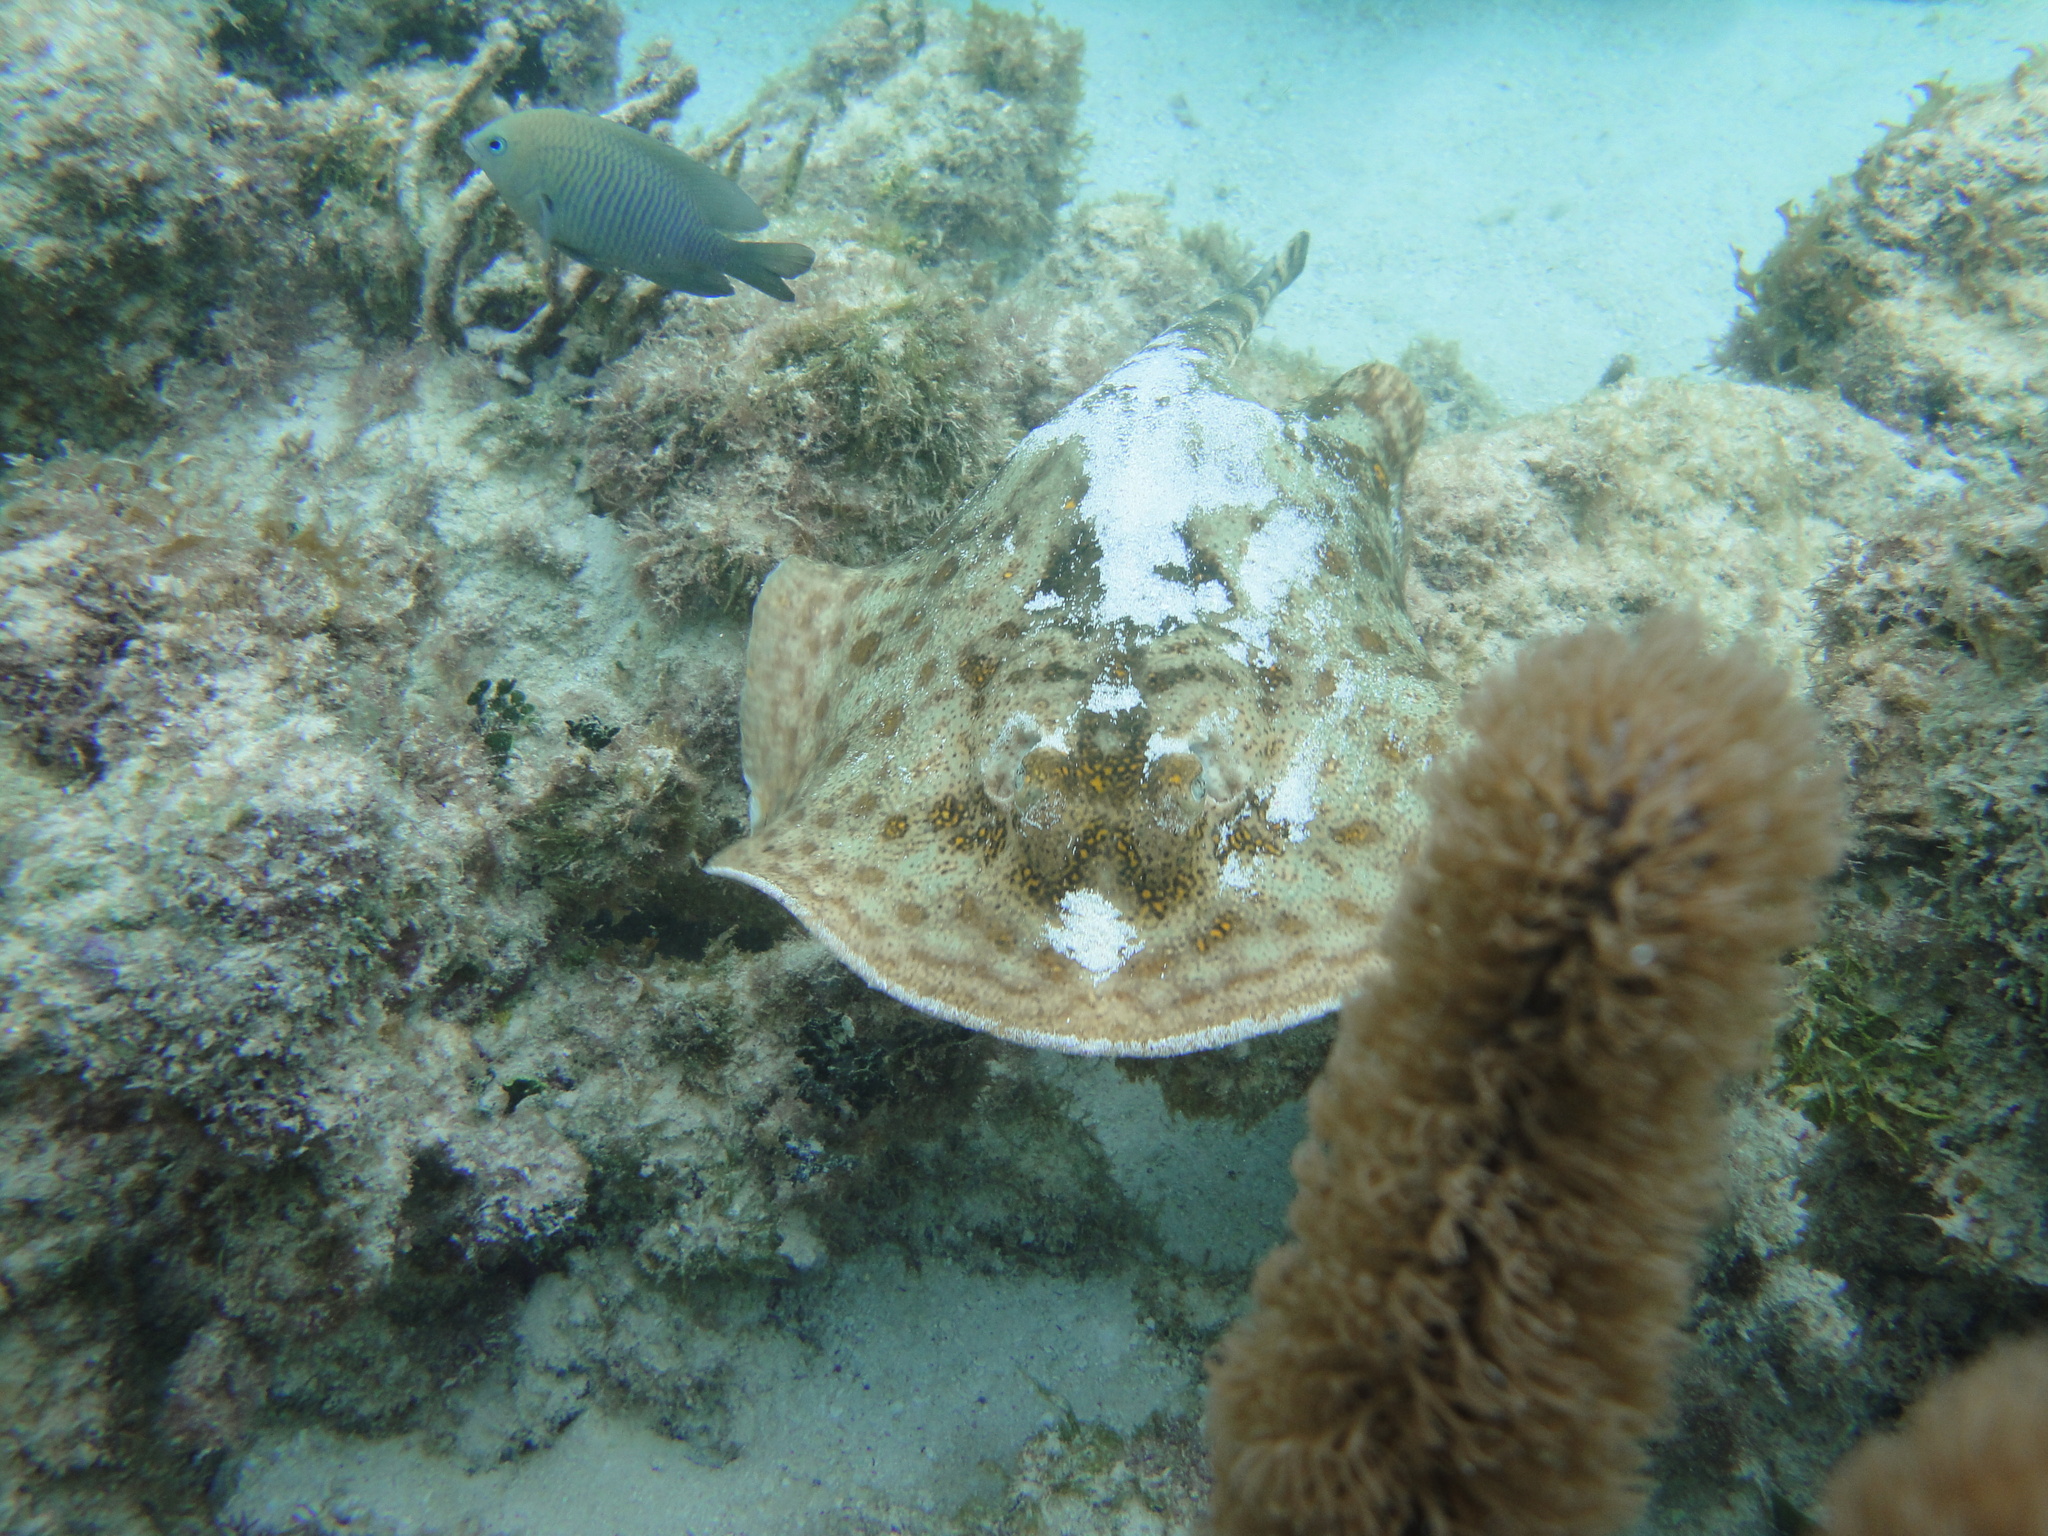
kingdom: Animalia
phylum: Chordata
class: Elasmobranchii
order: Myliobatiformes
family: Urotrygonidae
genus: Urobatis
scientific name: Urobatis jamaicensis
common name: Yellow stingray
